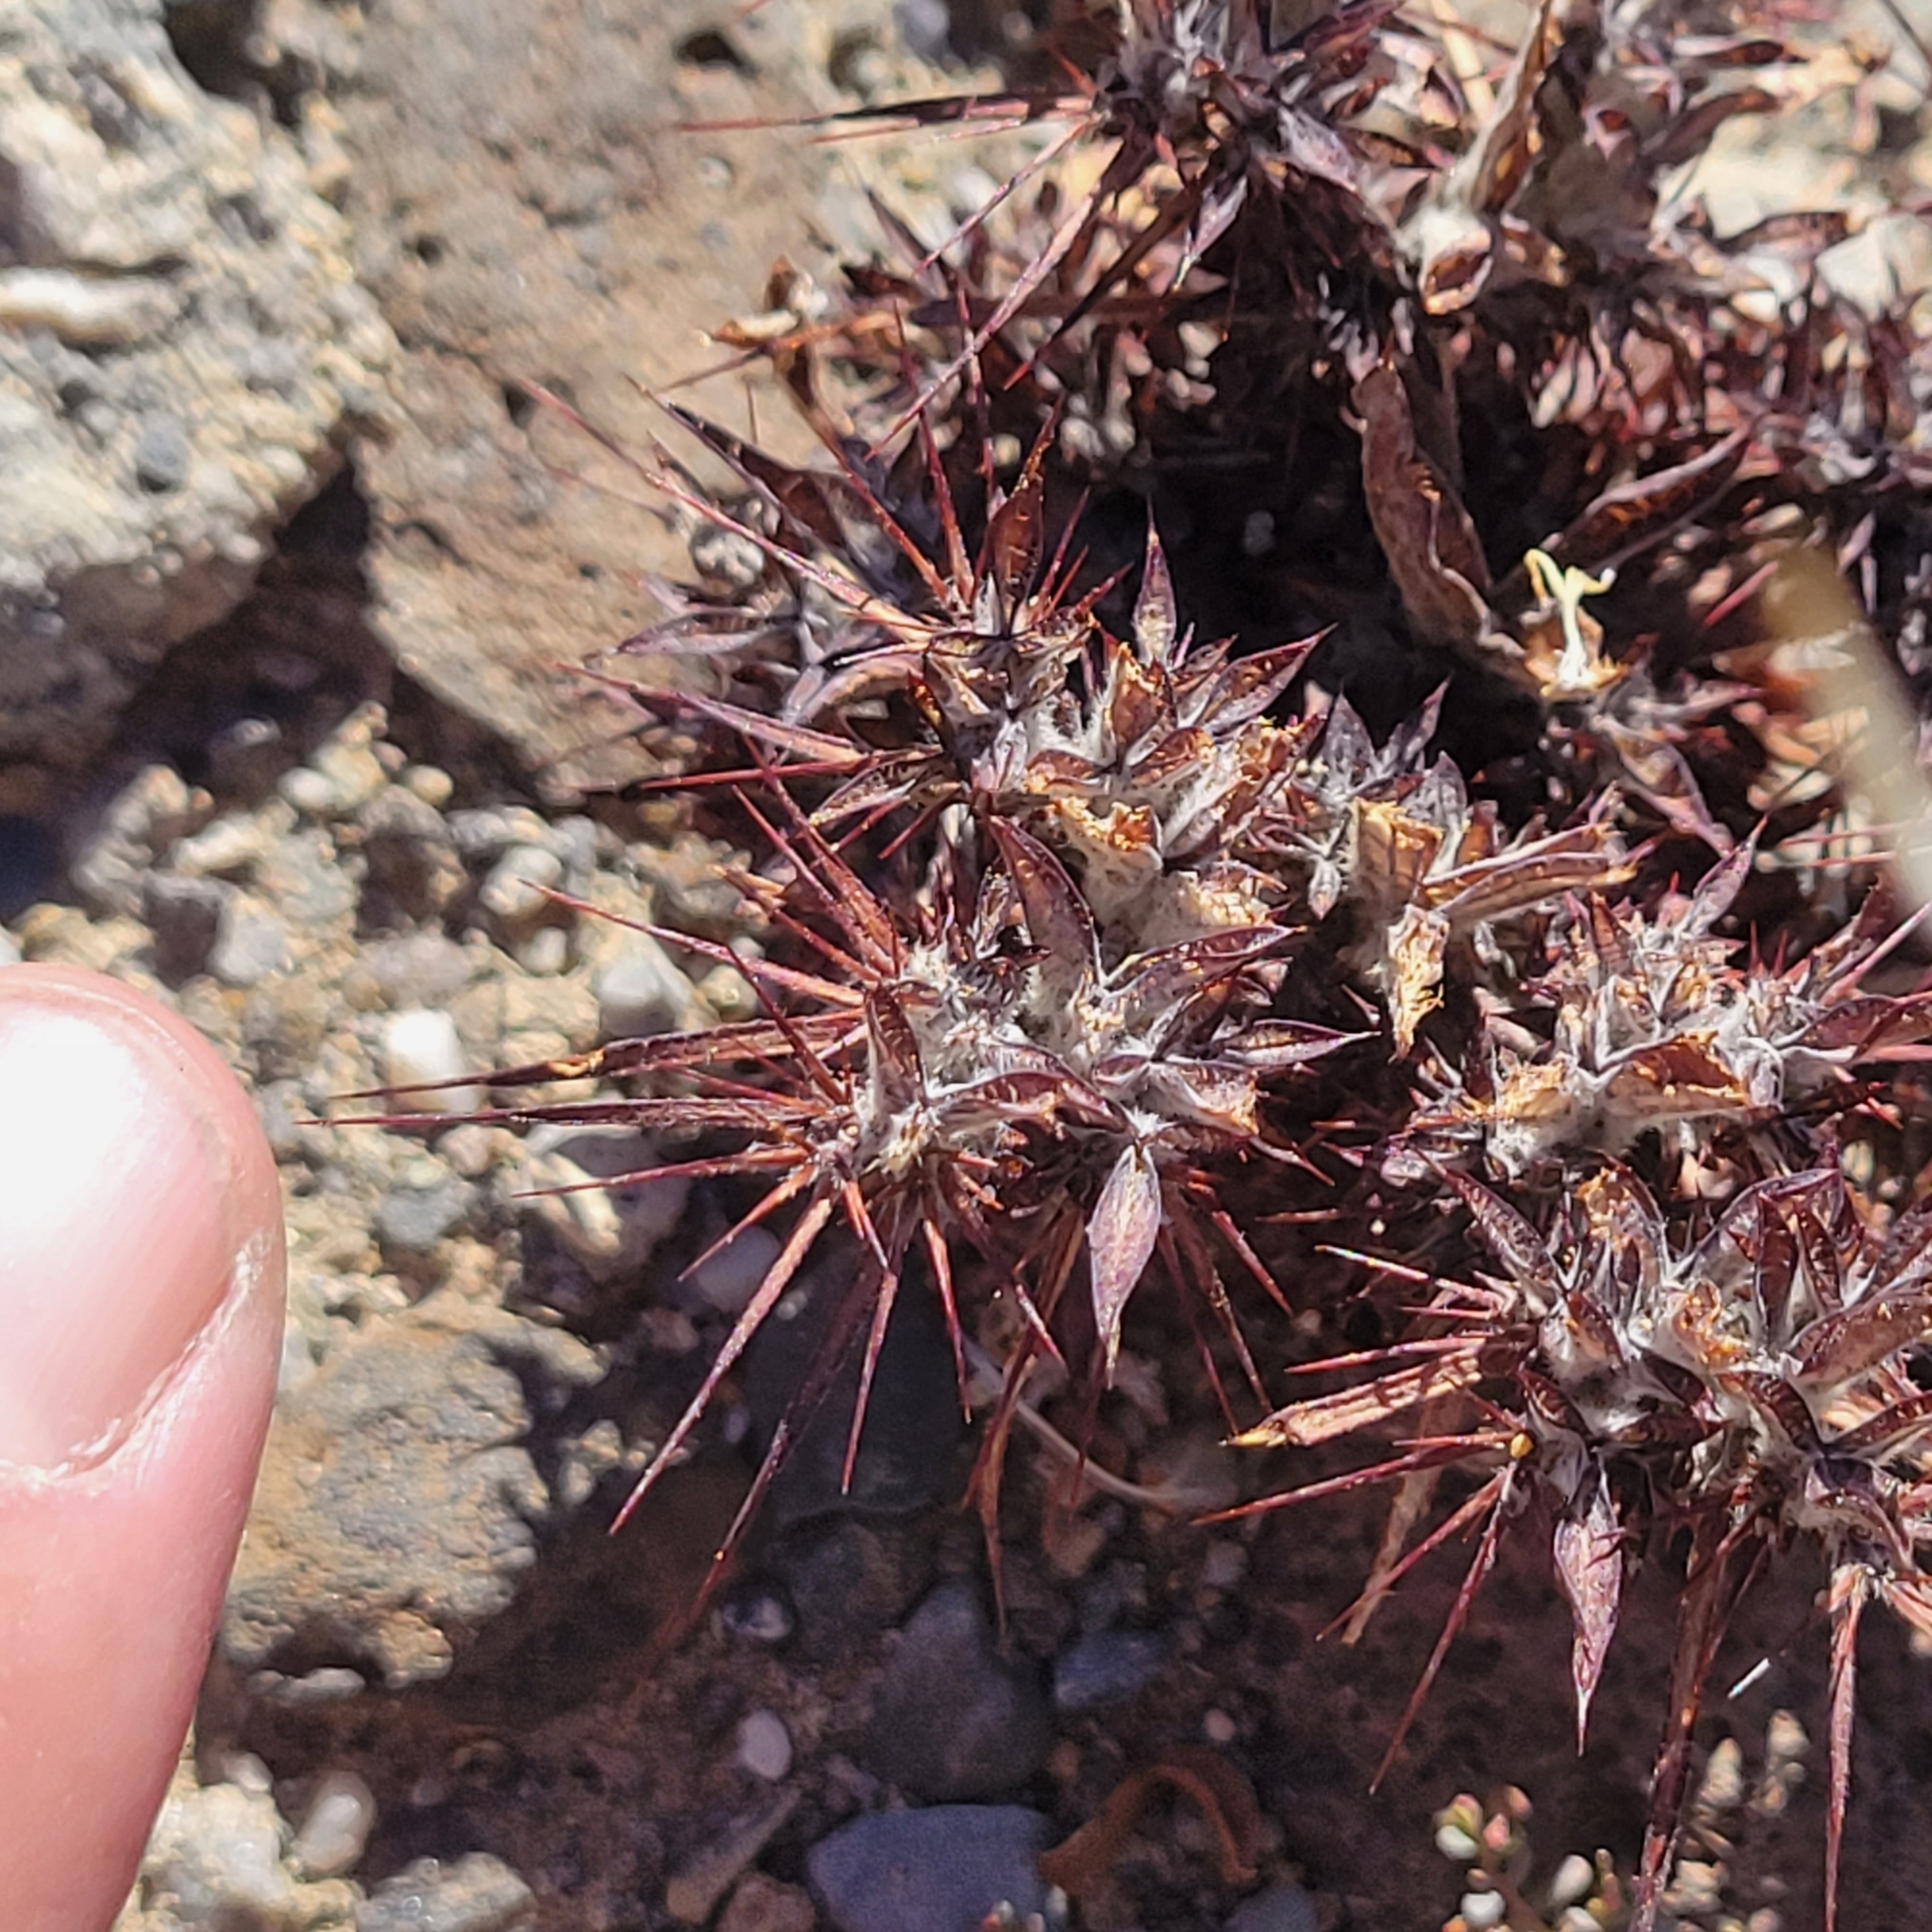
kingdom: Plantae
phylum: Tracheophyta
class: Magnoliopsida
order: Caryophyllales
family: Polygonaceae
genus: Chorizanthe
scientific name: Chorizanthe rigida
